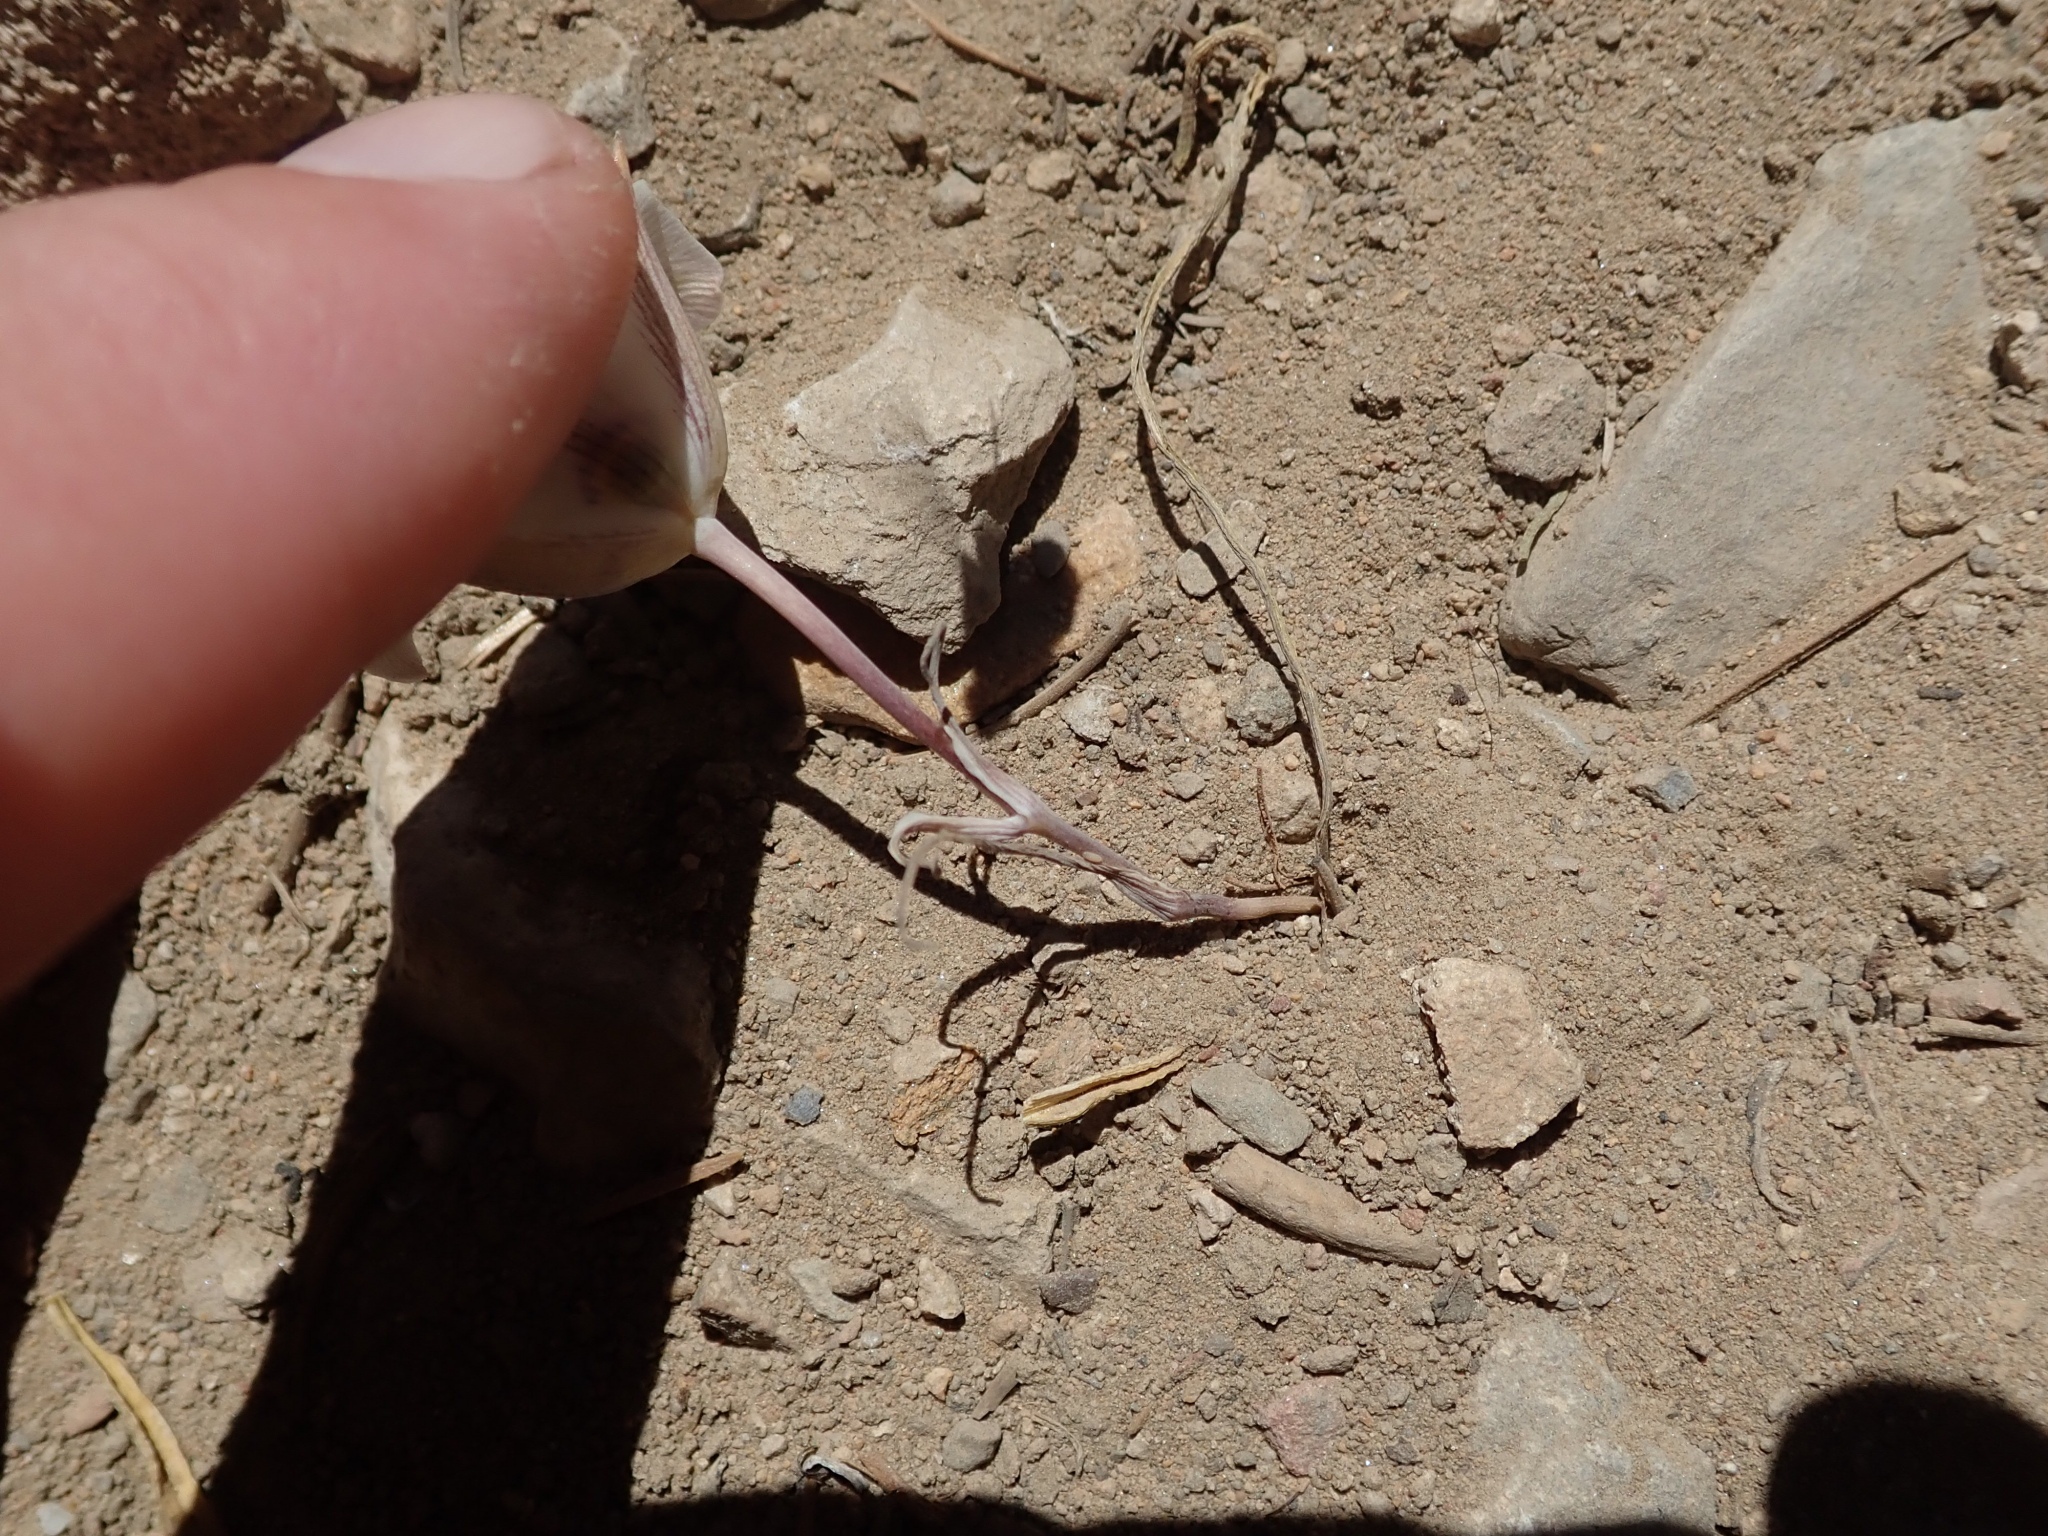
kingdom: Plantae
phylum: Tracheophyta
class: Liliopsida
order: Liliales
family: Liliaceae
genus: Calochortus
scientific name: Calochortus bruneaunis
